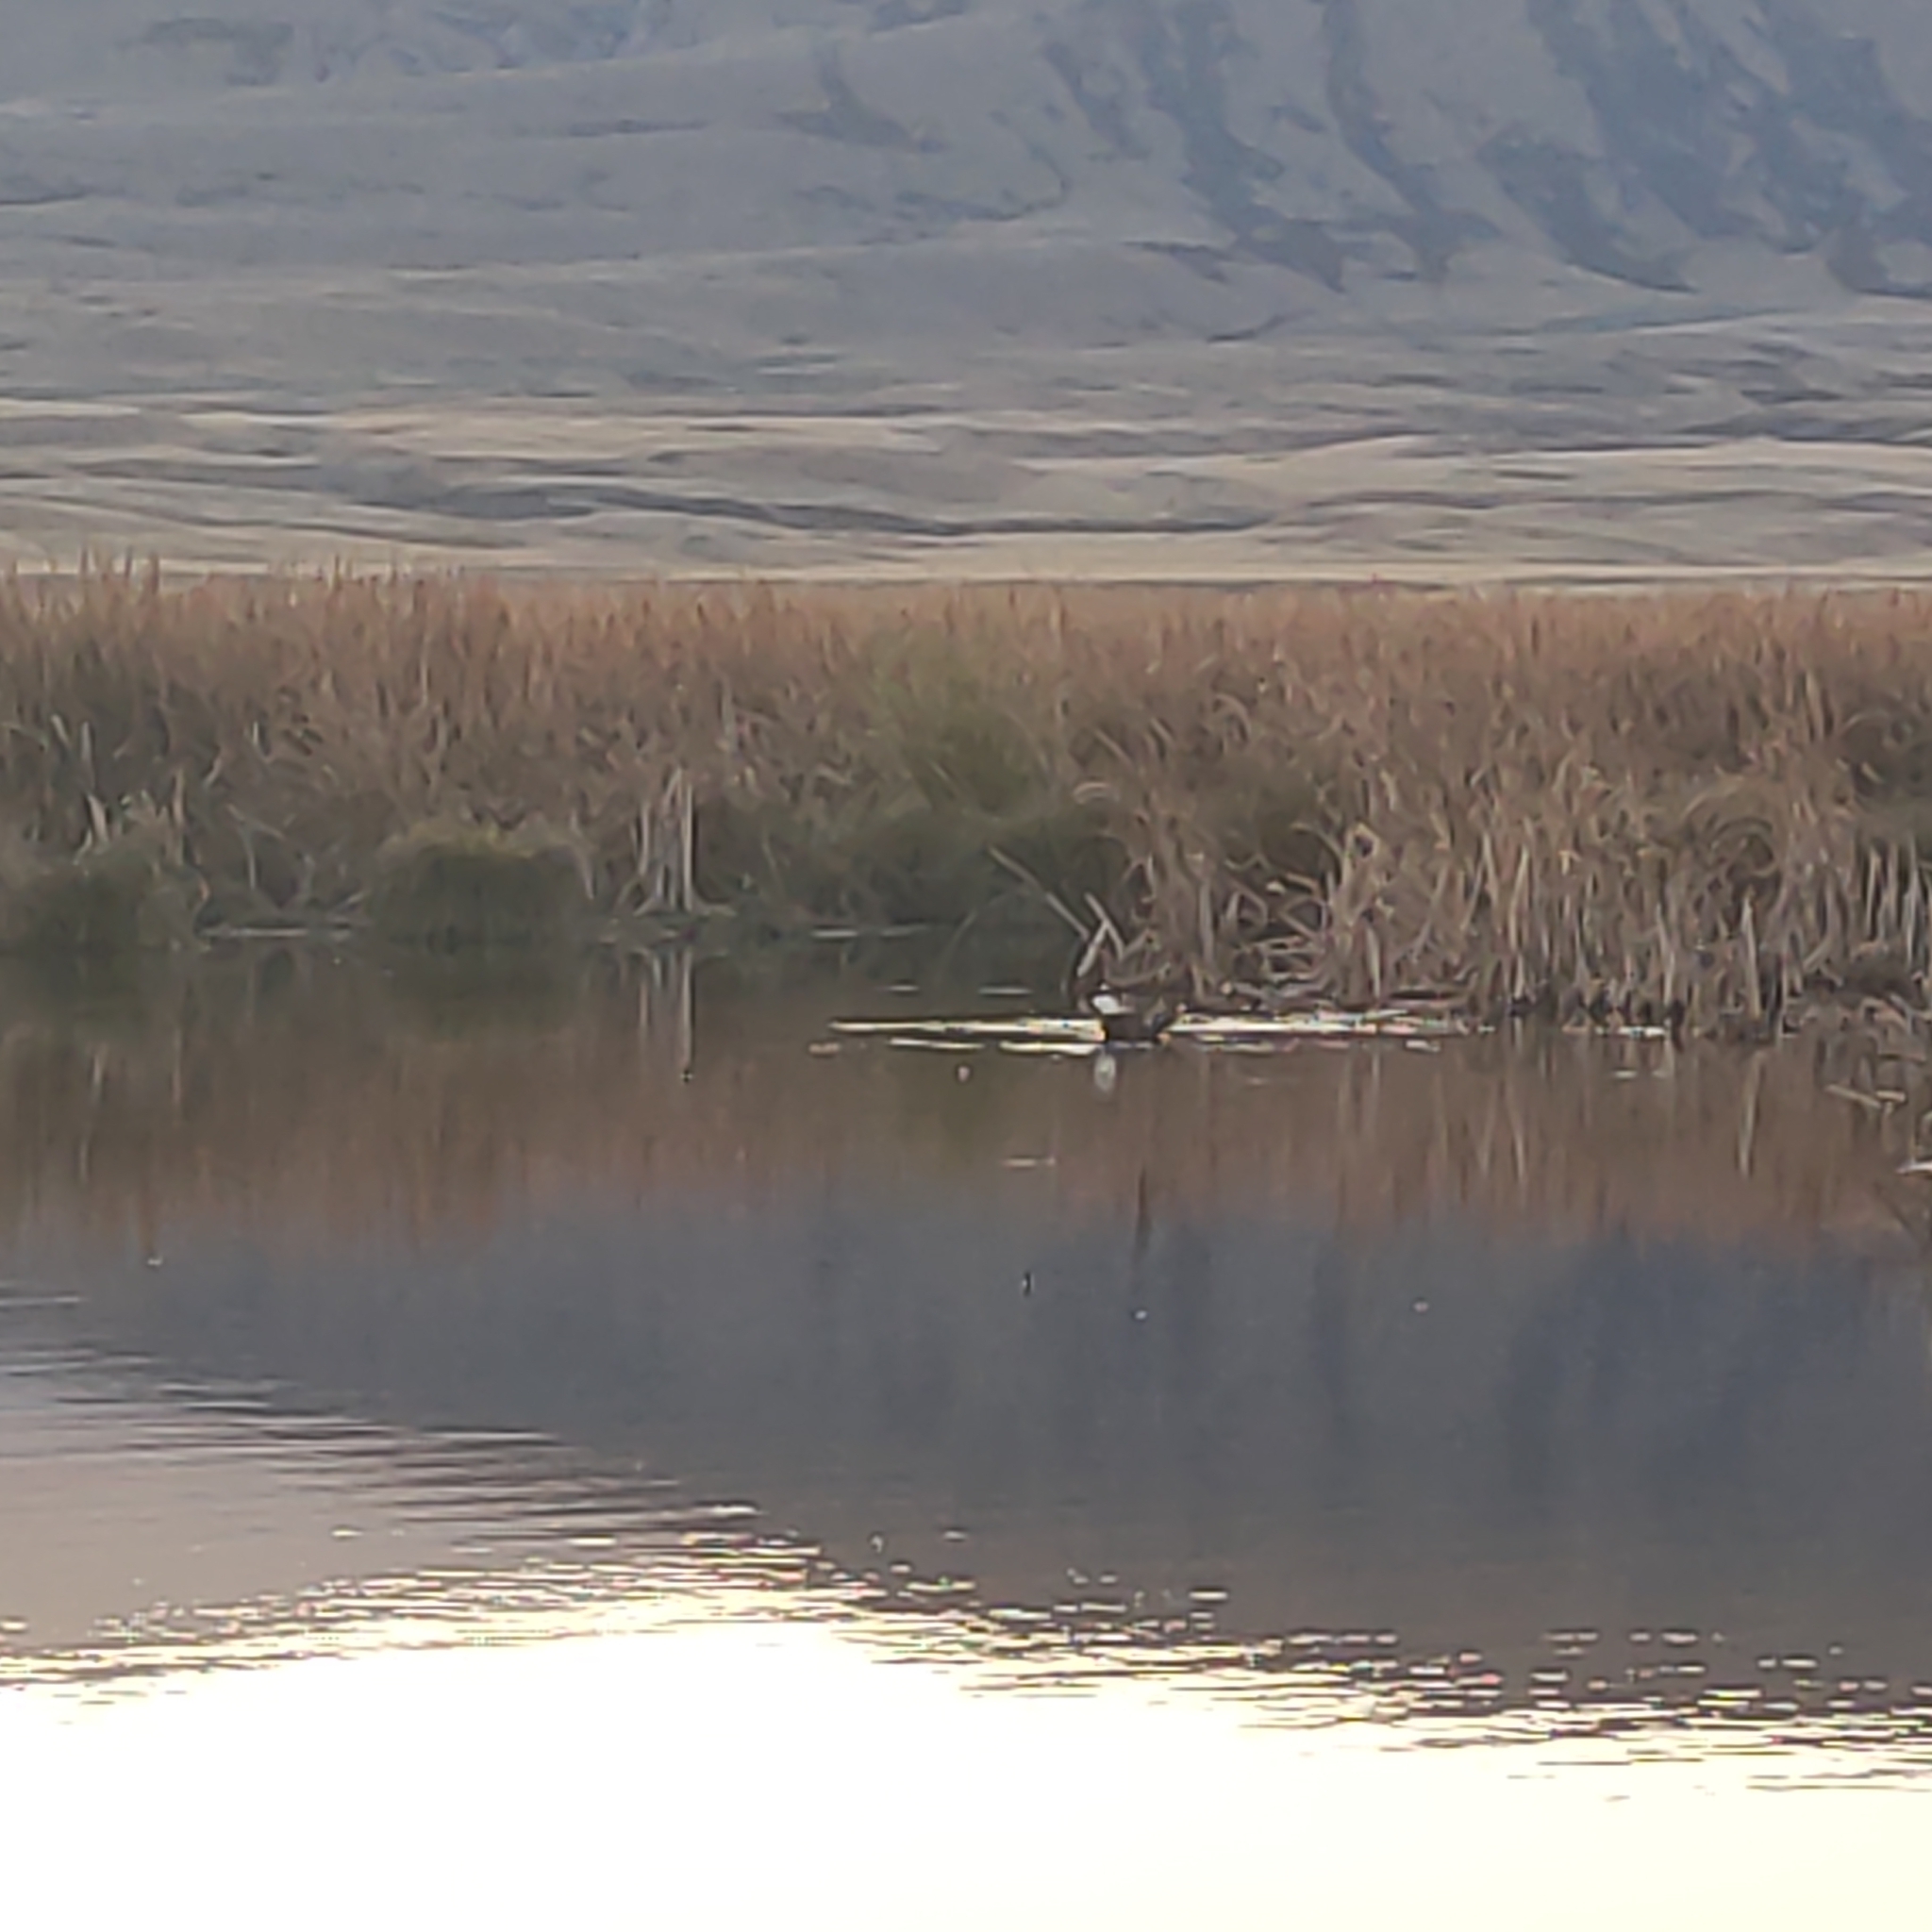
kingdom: Animalia
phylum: Chordata
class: Aves
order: Anseriformes
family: Anatidae
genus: Tadorna
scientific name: Tadorna variegata
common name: Paradise shelduck
